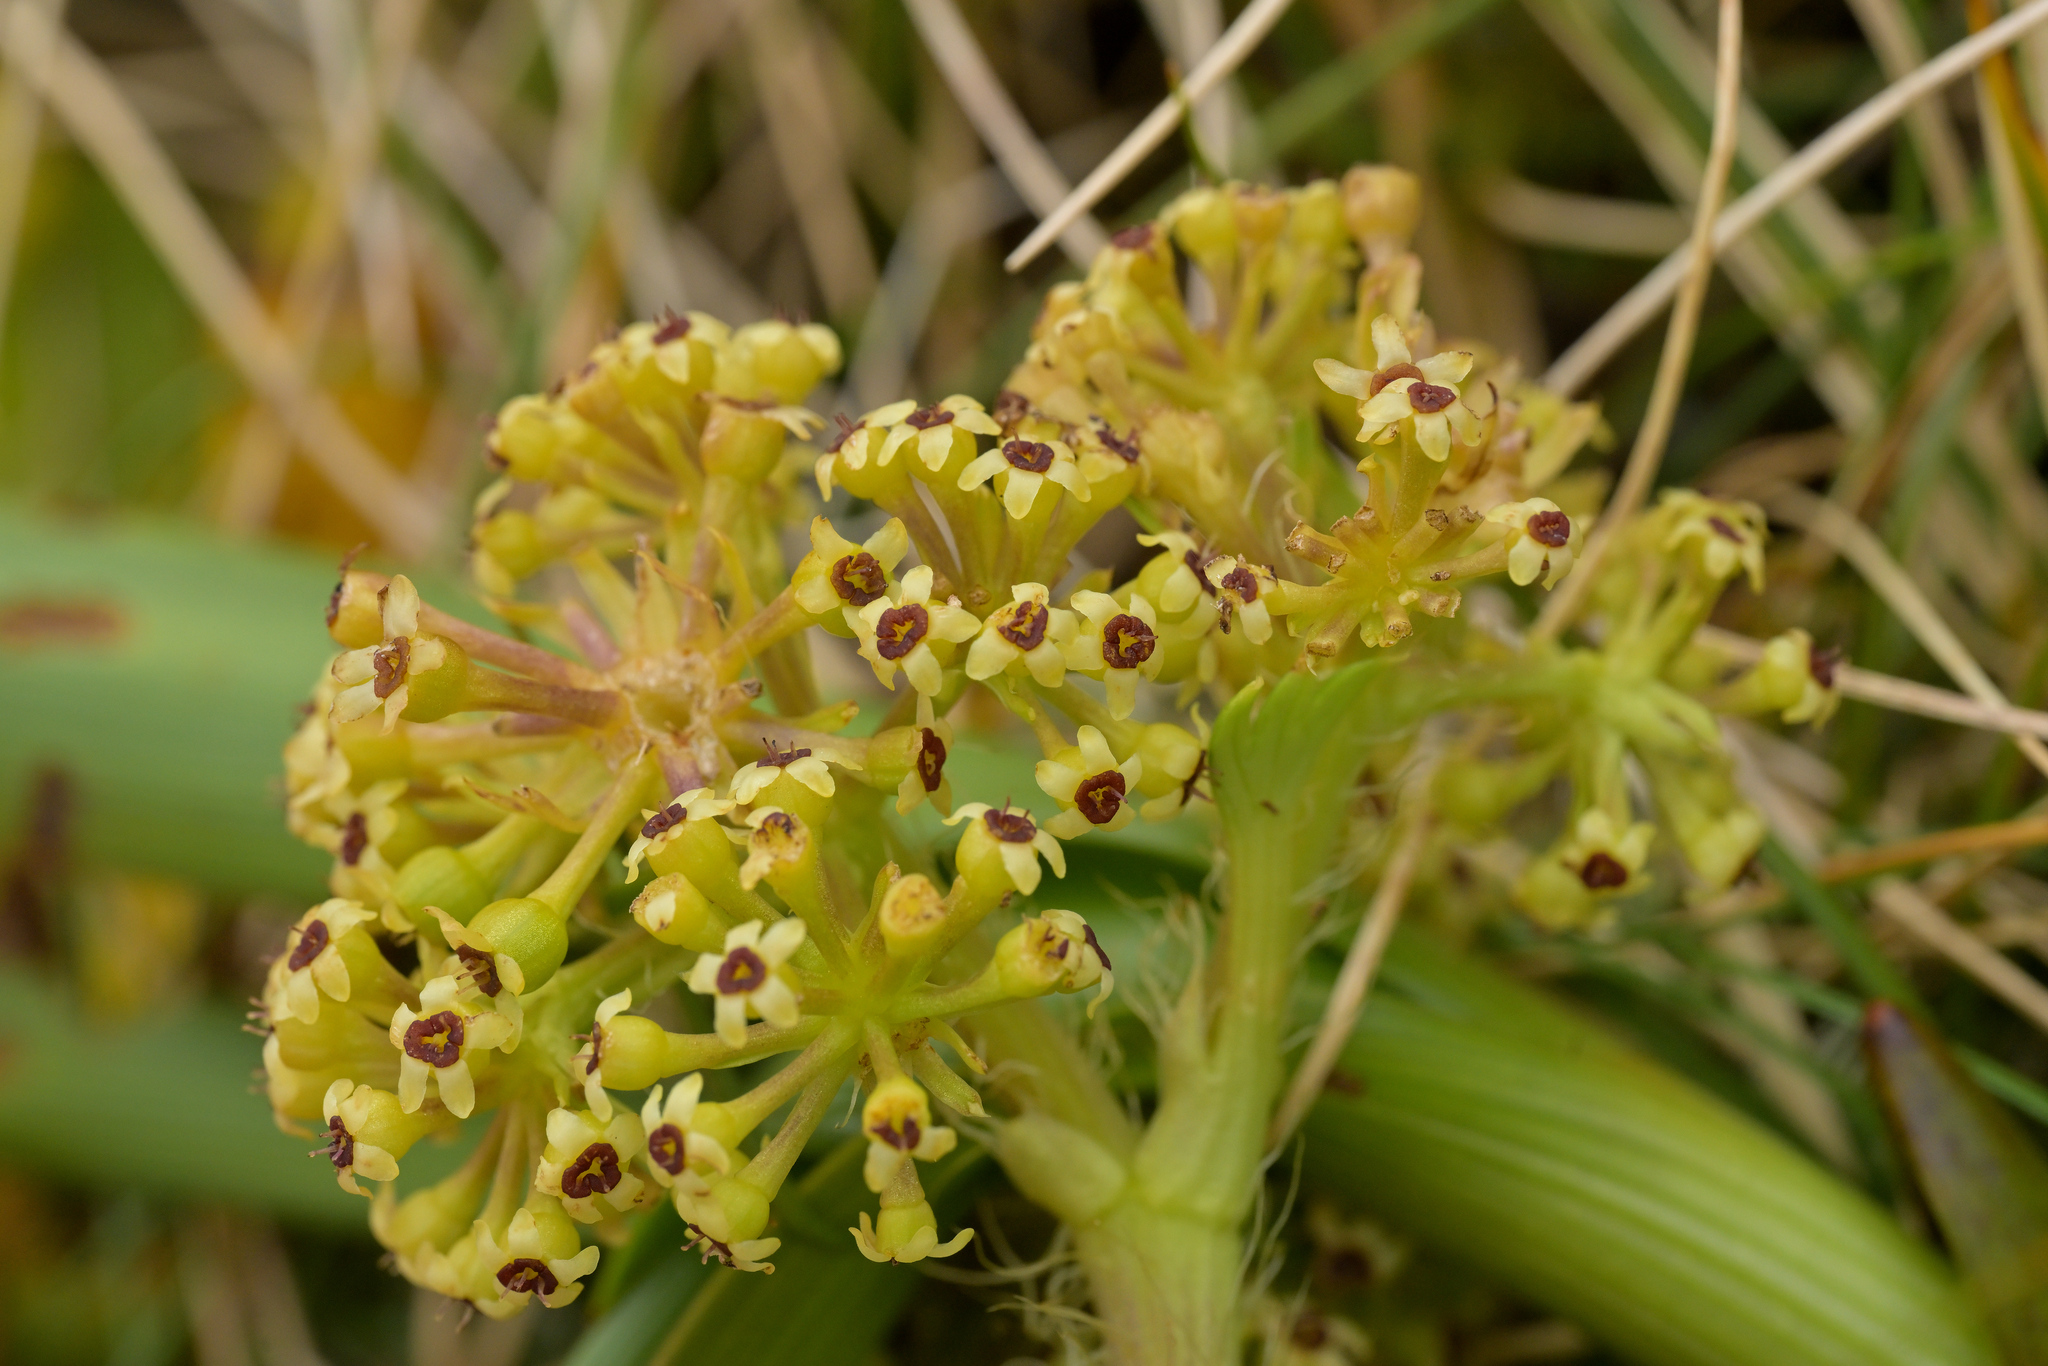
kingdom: Plantae
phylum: Tracheophyta
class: Magnoliopsida
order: Apiales
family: Apiaceae
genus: Azorella
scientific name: Azorella polaris
